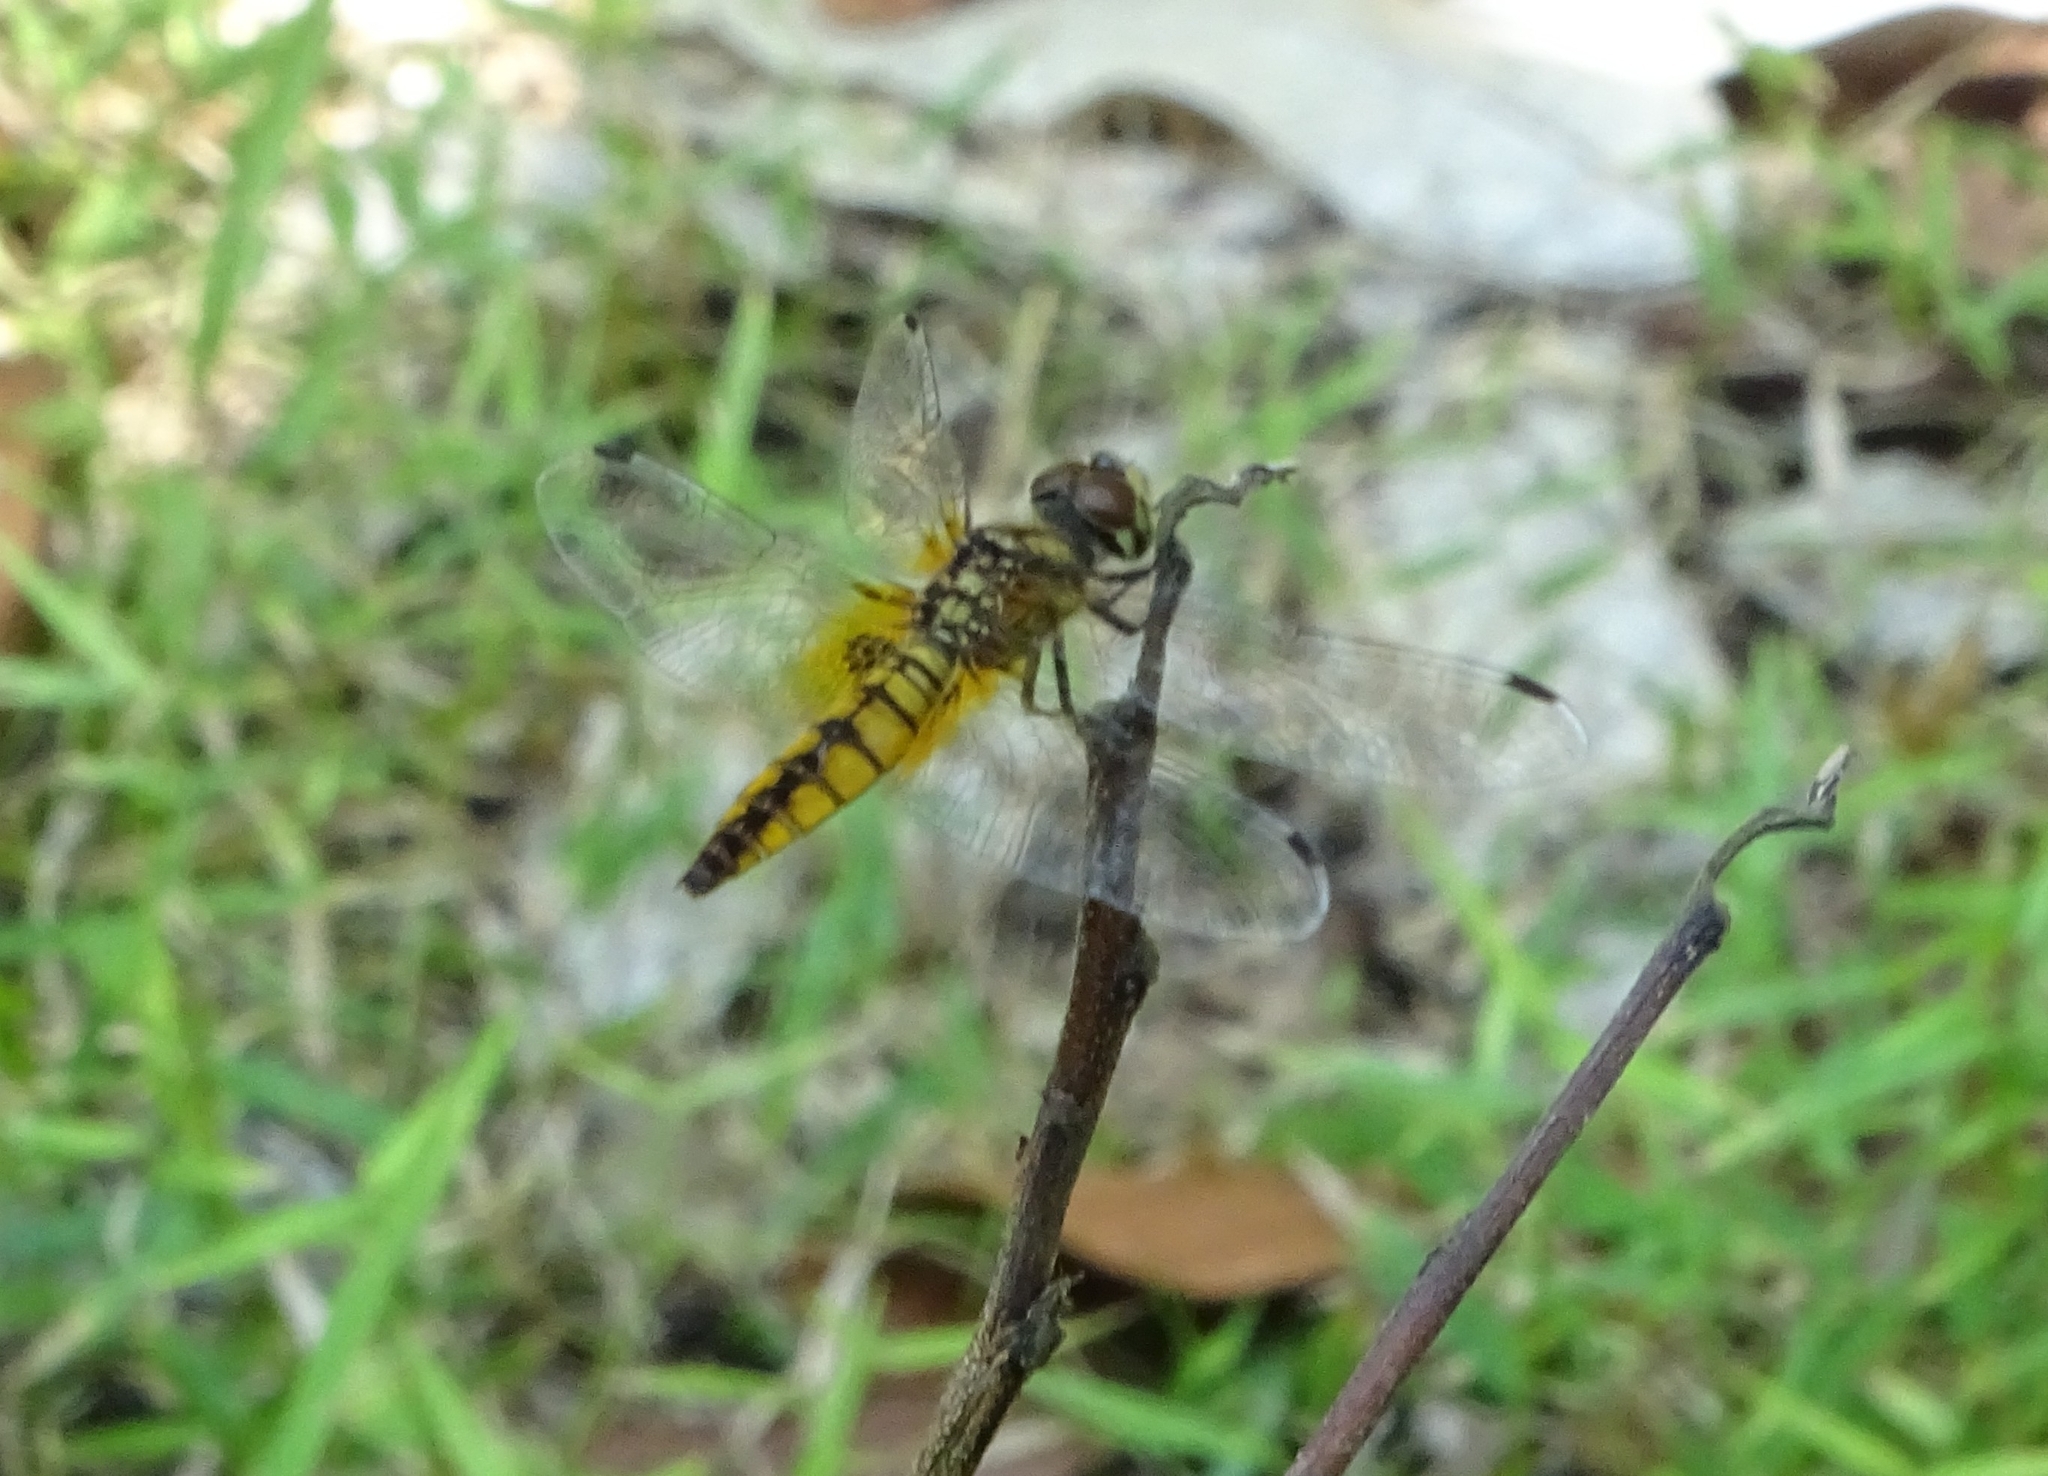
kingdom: Animalia
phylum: Arthropoda
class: Insecta
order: Odonata
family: Libellulidae
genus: Aethriamanta
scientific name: Aethriamanta brevipennis
